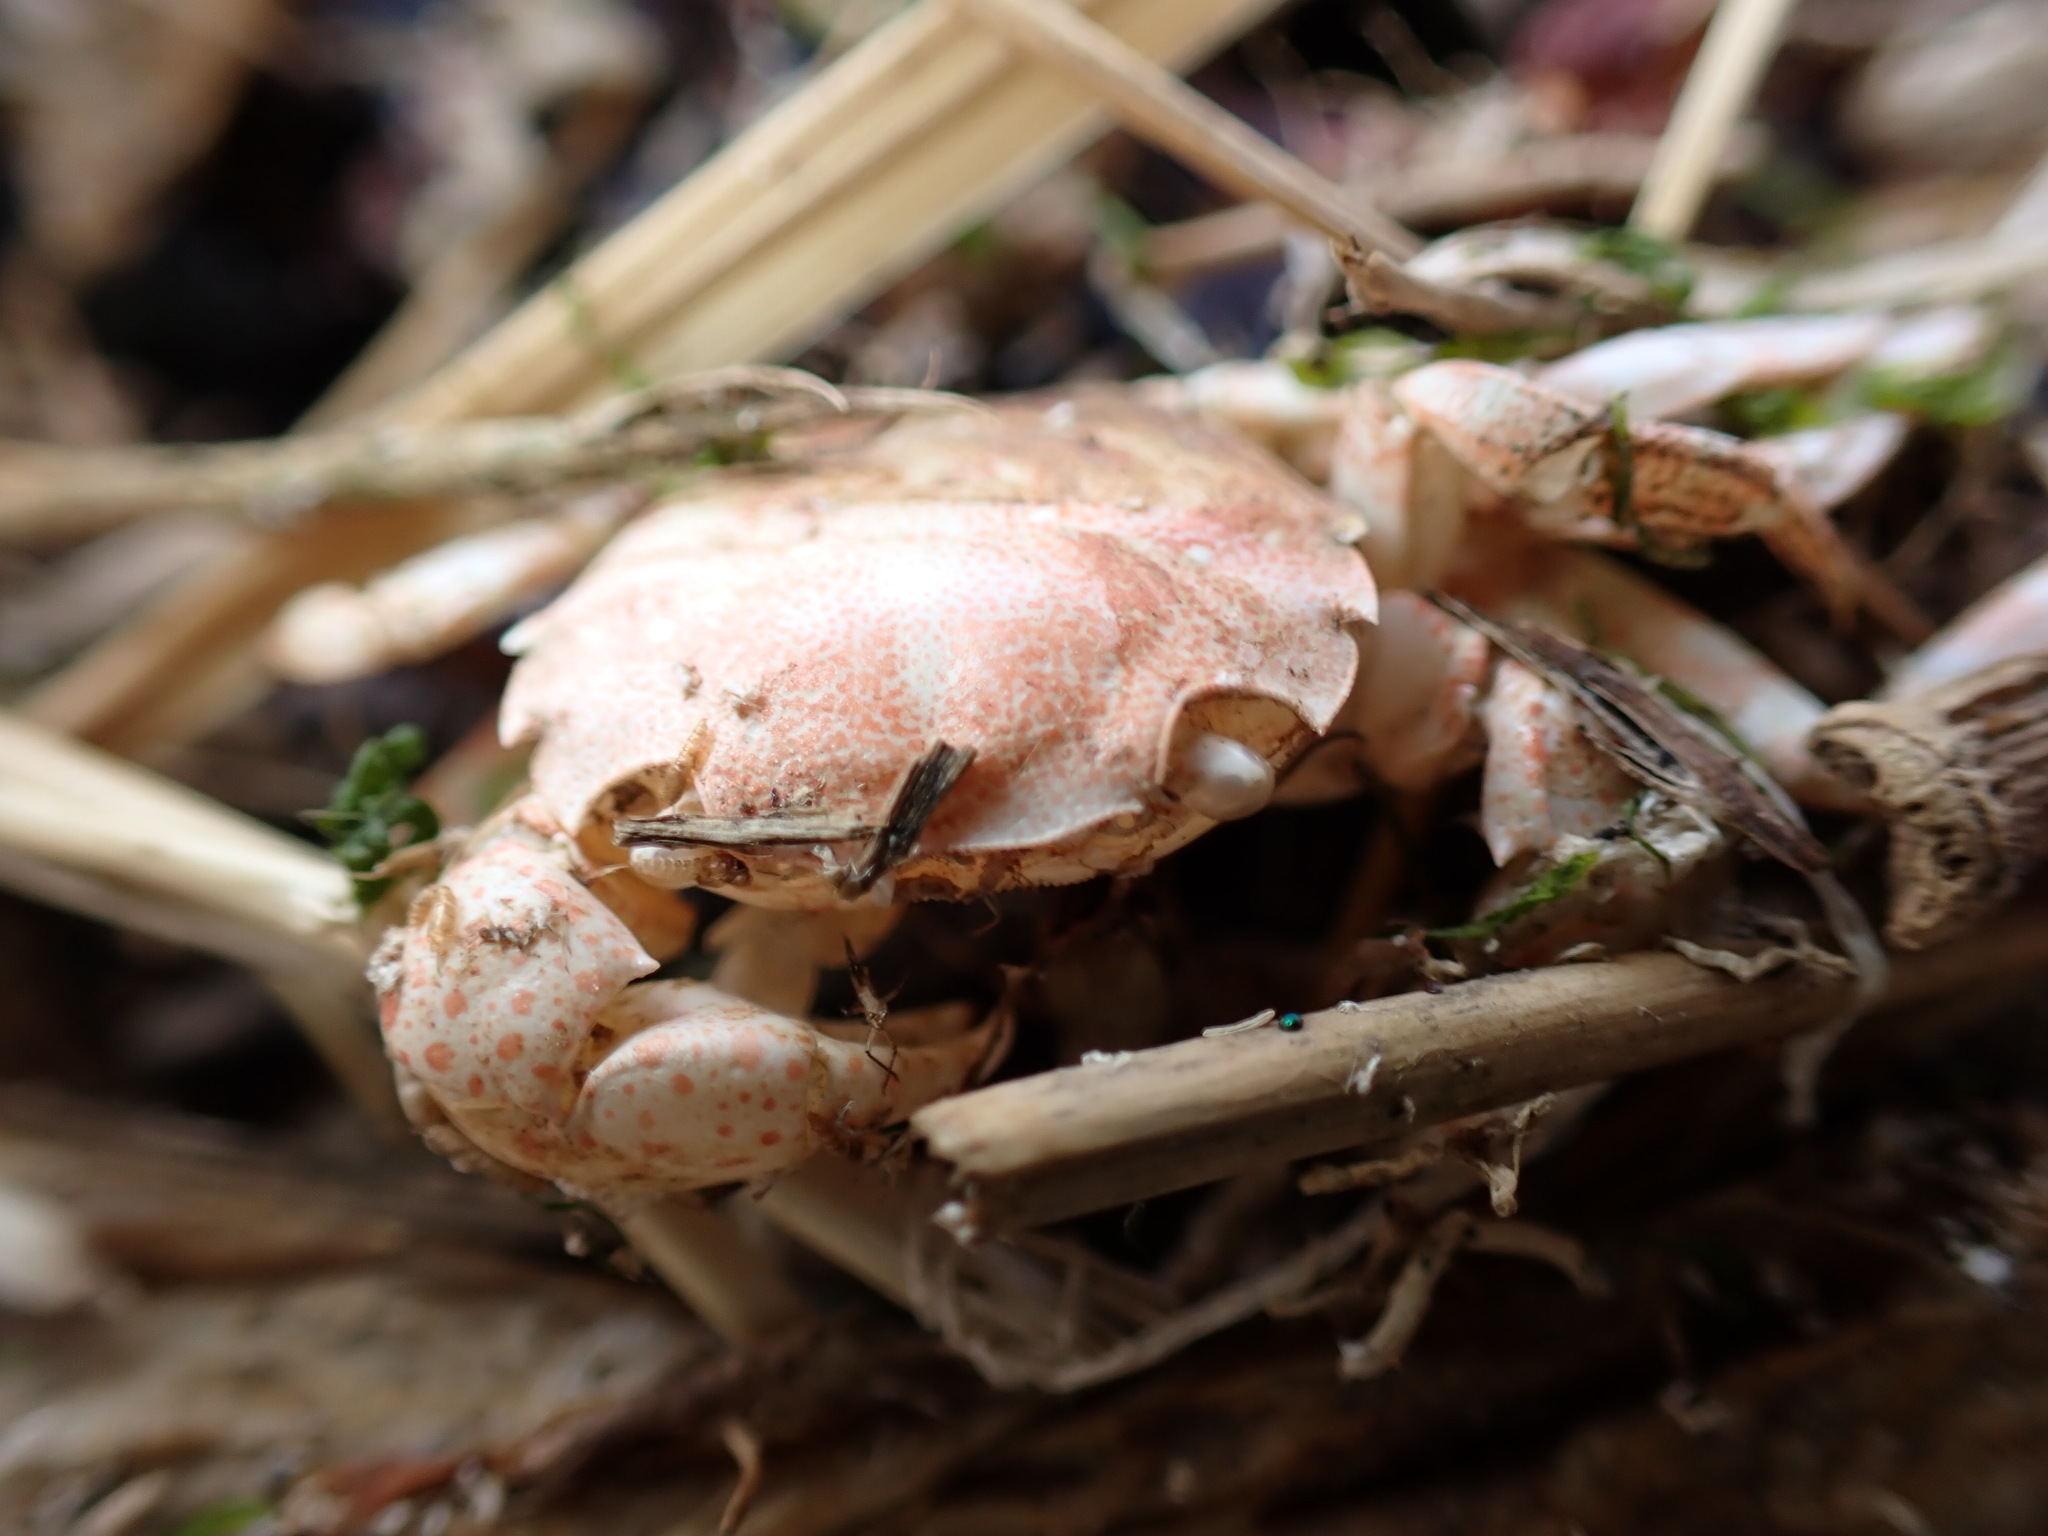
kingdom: Animalia
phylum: Arthropoda
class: Malacostraca
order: Decapoda
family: Varunidae
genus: Hemigrapsus
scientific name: Hemigrapsus sanguineus
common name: Asian shore crab
